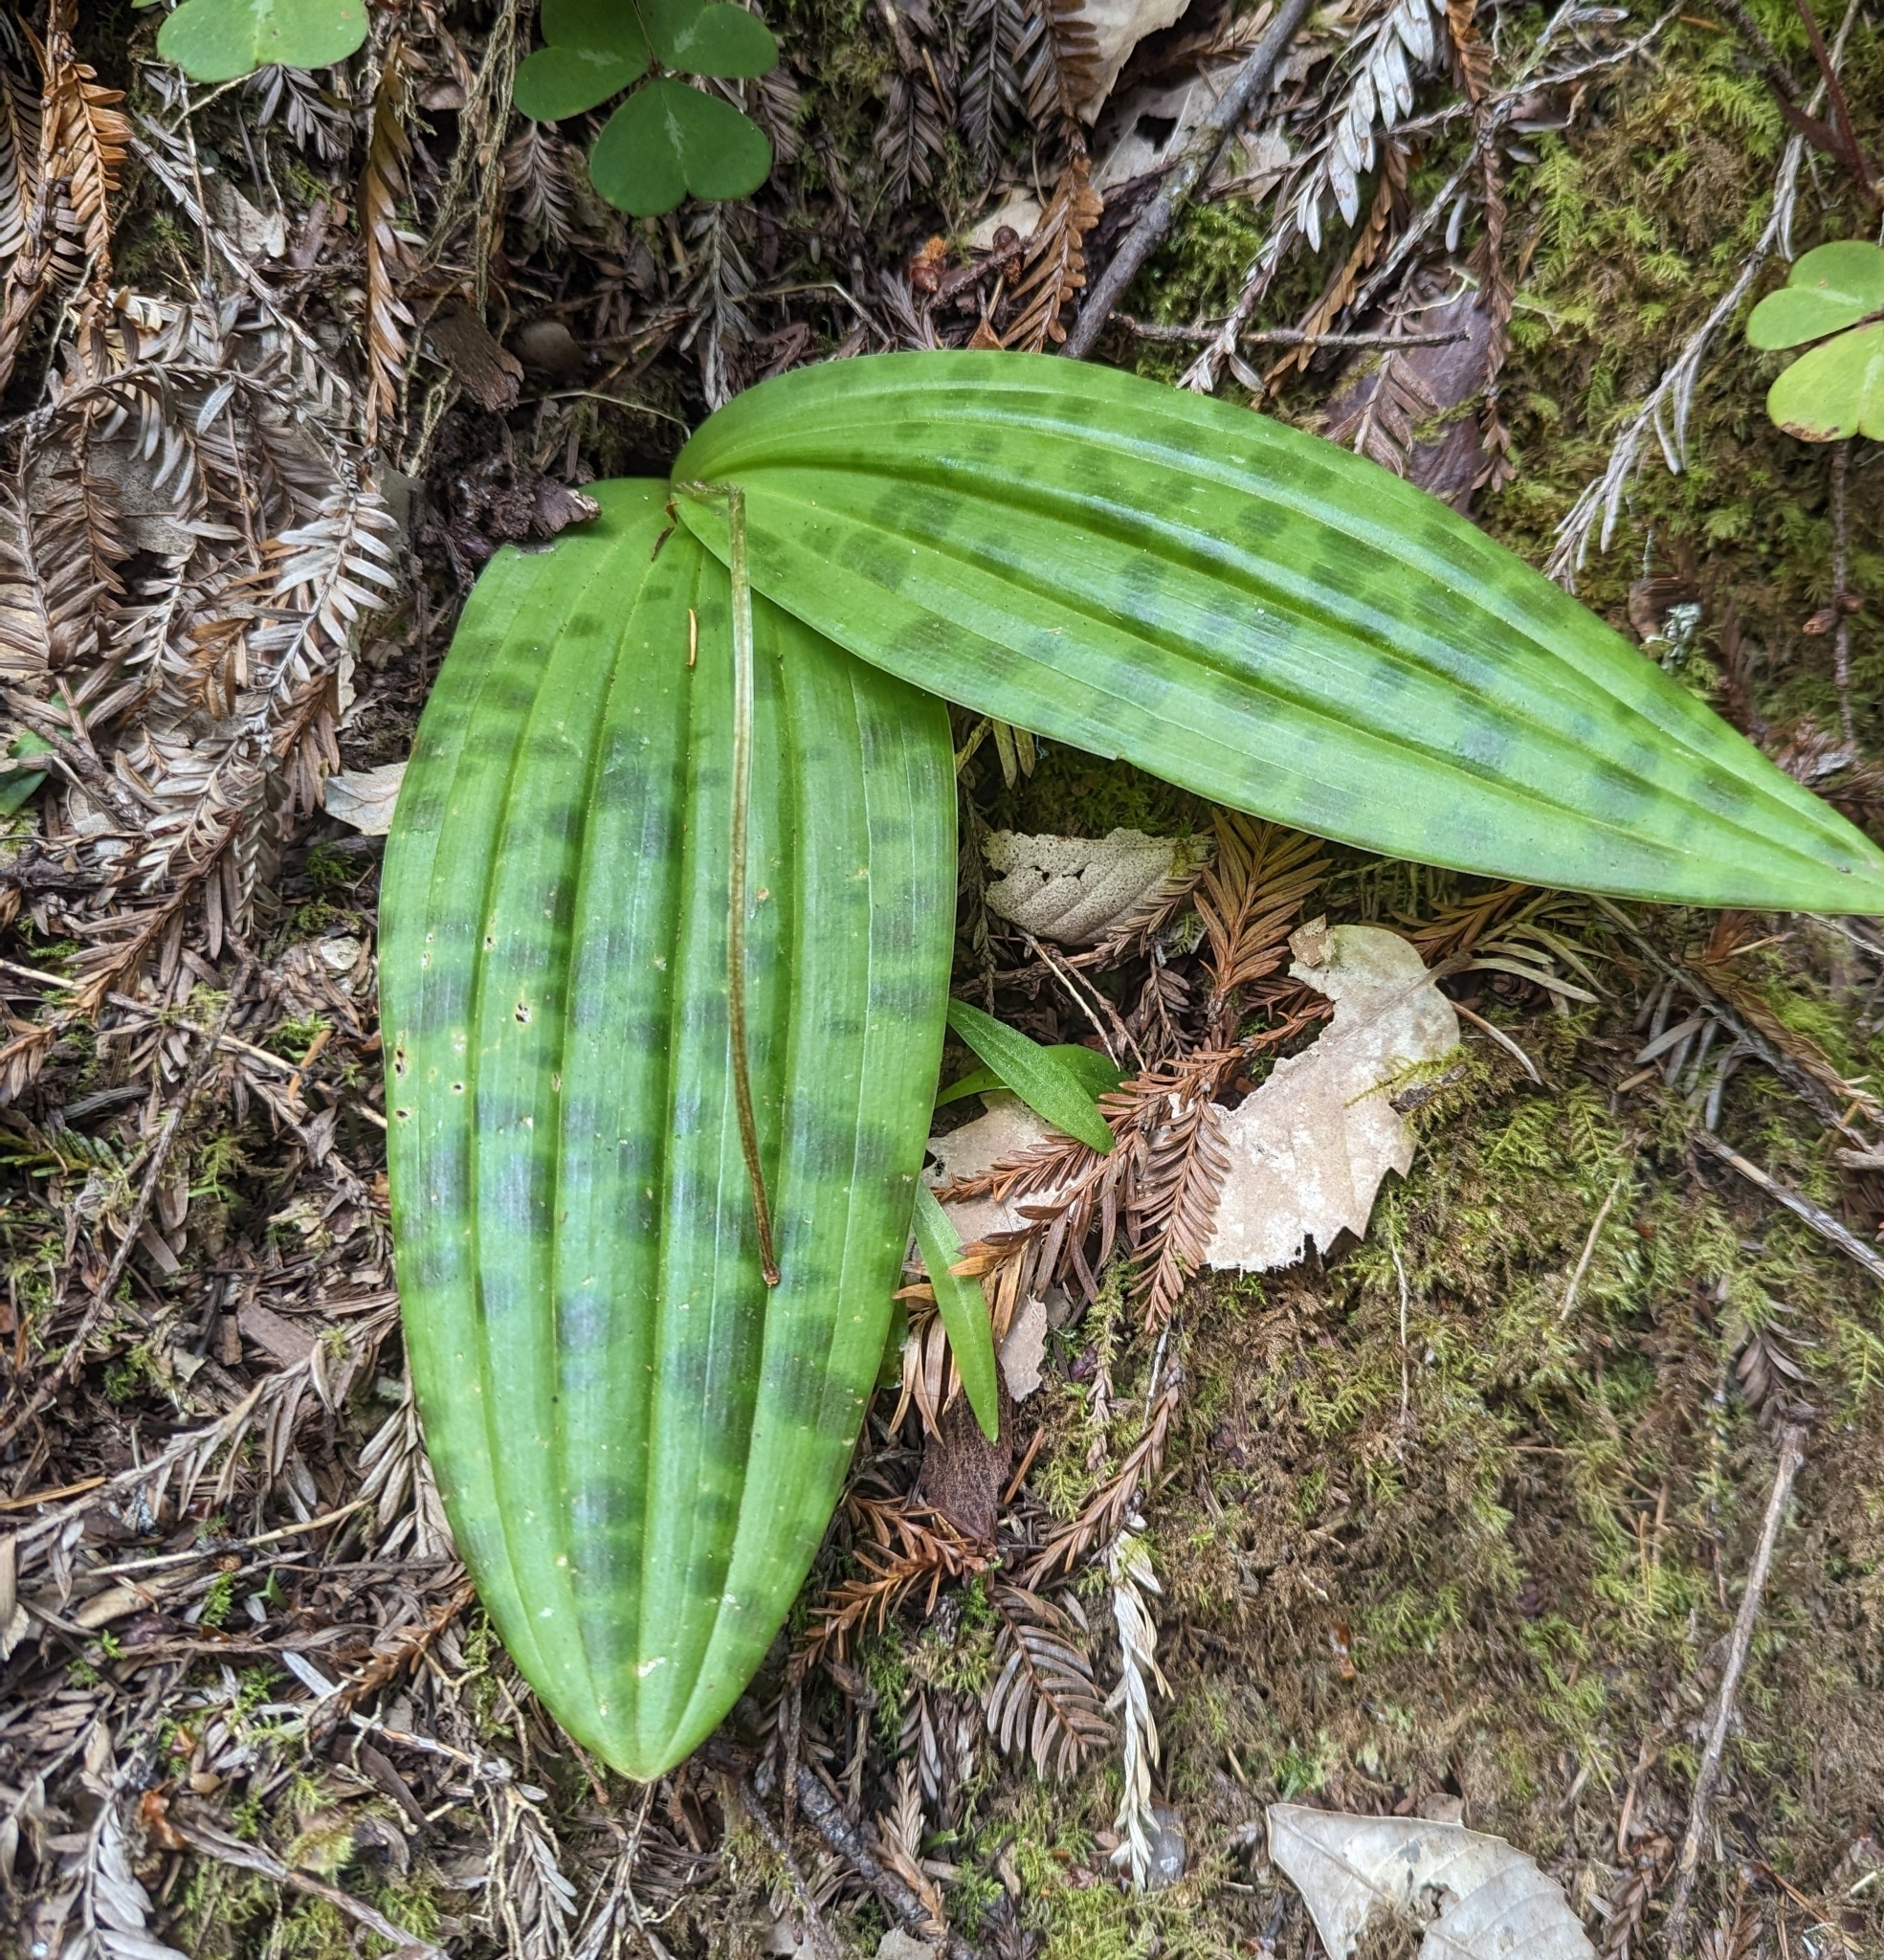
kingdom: Plantae
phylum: Tracheophyta
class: Liliopsida
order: Liliales
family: Liliaceae
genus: Scoliopus
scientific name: Scoliopus bigelovii
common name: Foetid adder's-tongue
